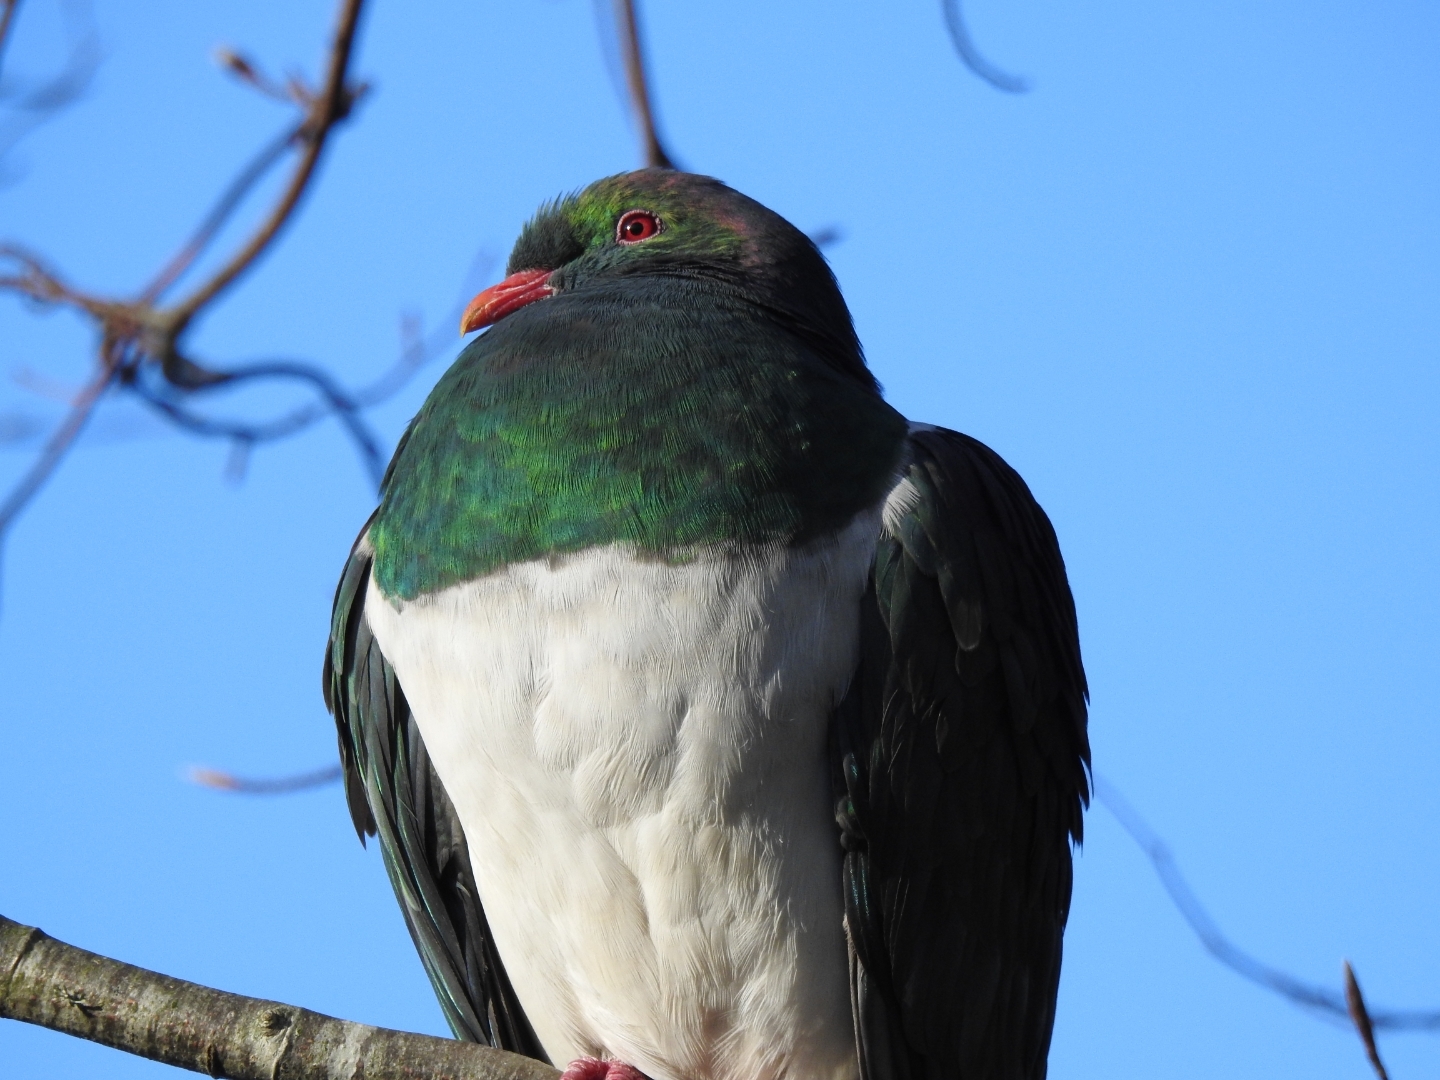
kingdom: Animalia
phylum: Chordata
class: Aves
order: Columbiformes
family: Columbidae
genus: Hemiphaga
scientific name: Hemiphaga novaeseelandiae
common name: New zealand pigeon
